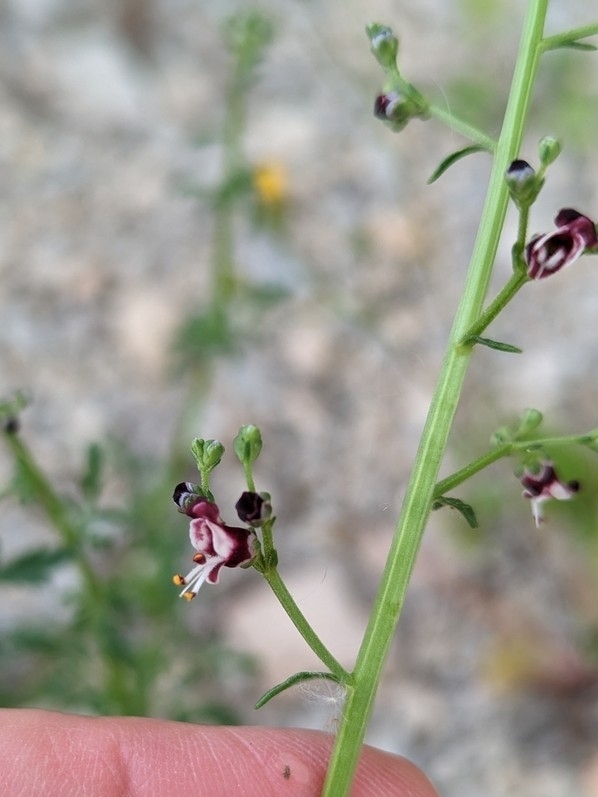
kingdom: Plantae
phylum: Tracheophyta
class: Magnoliopsida
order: Lamiales
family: Scrophulariaceae
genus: Scrophularia
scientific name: Scrophularia canina
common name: French figwort
